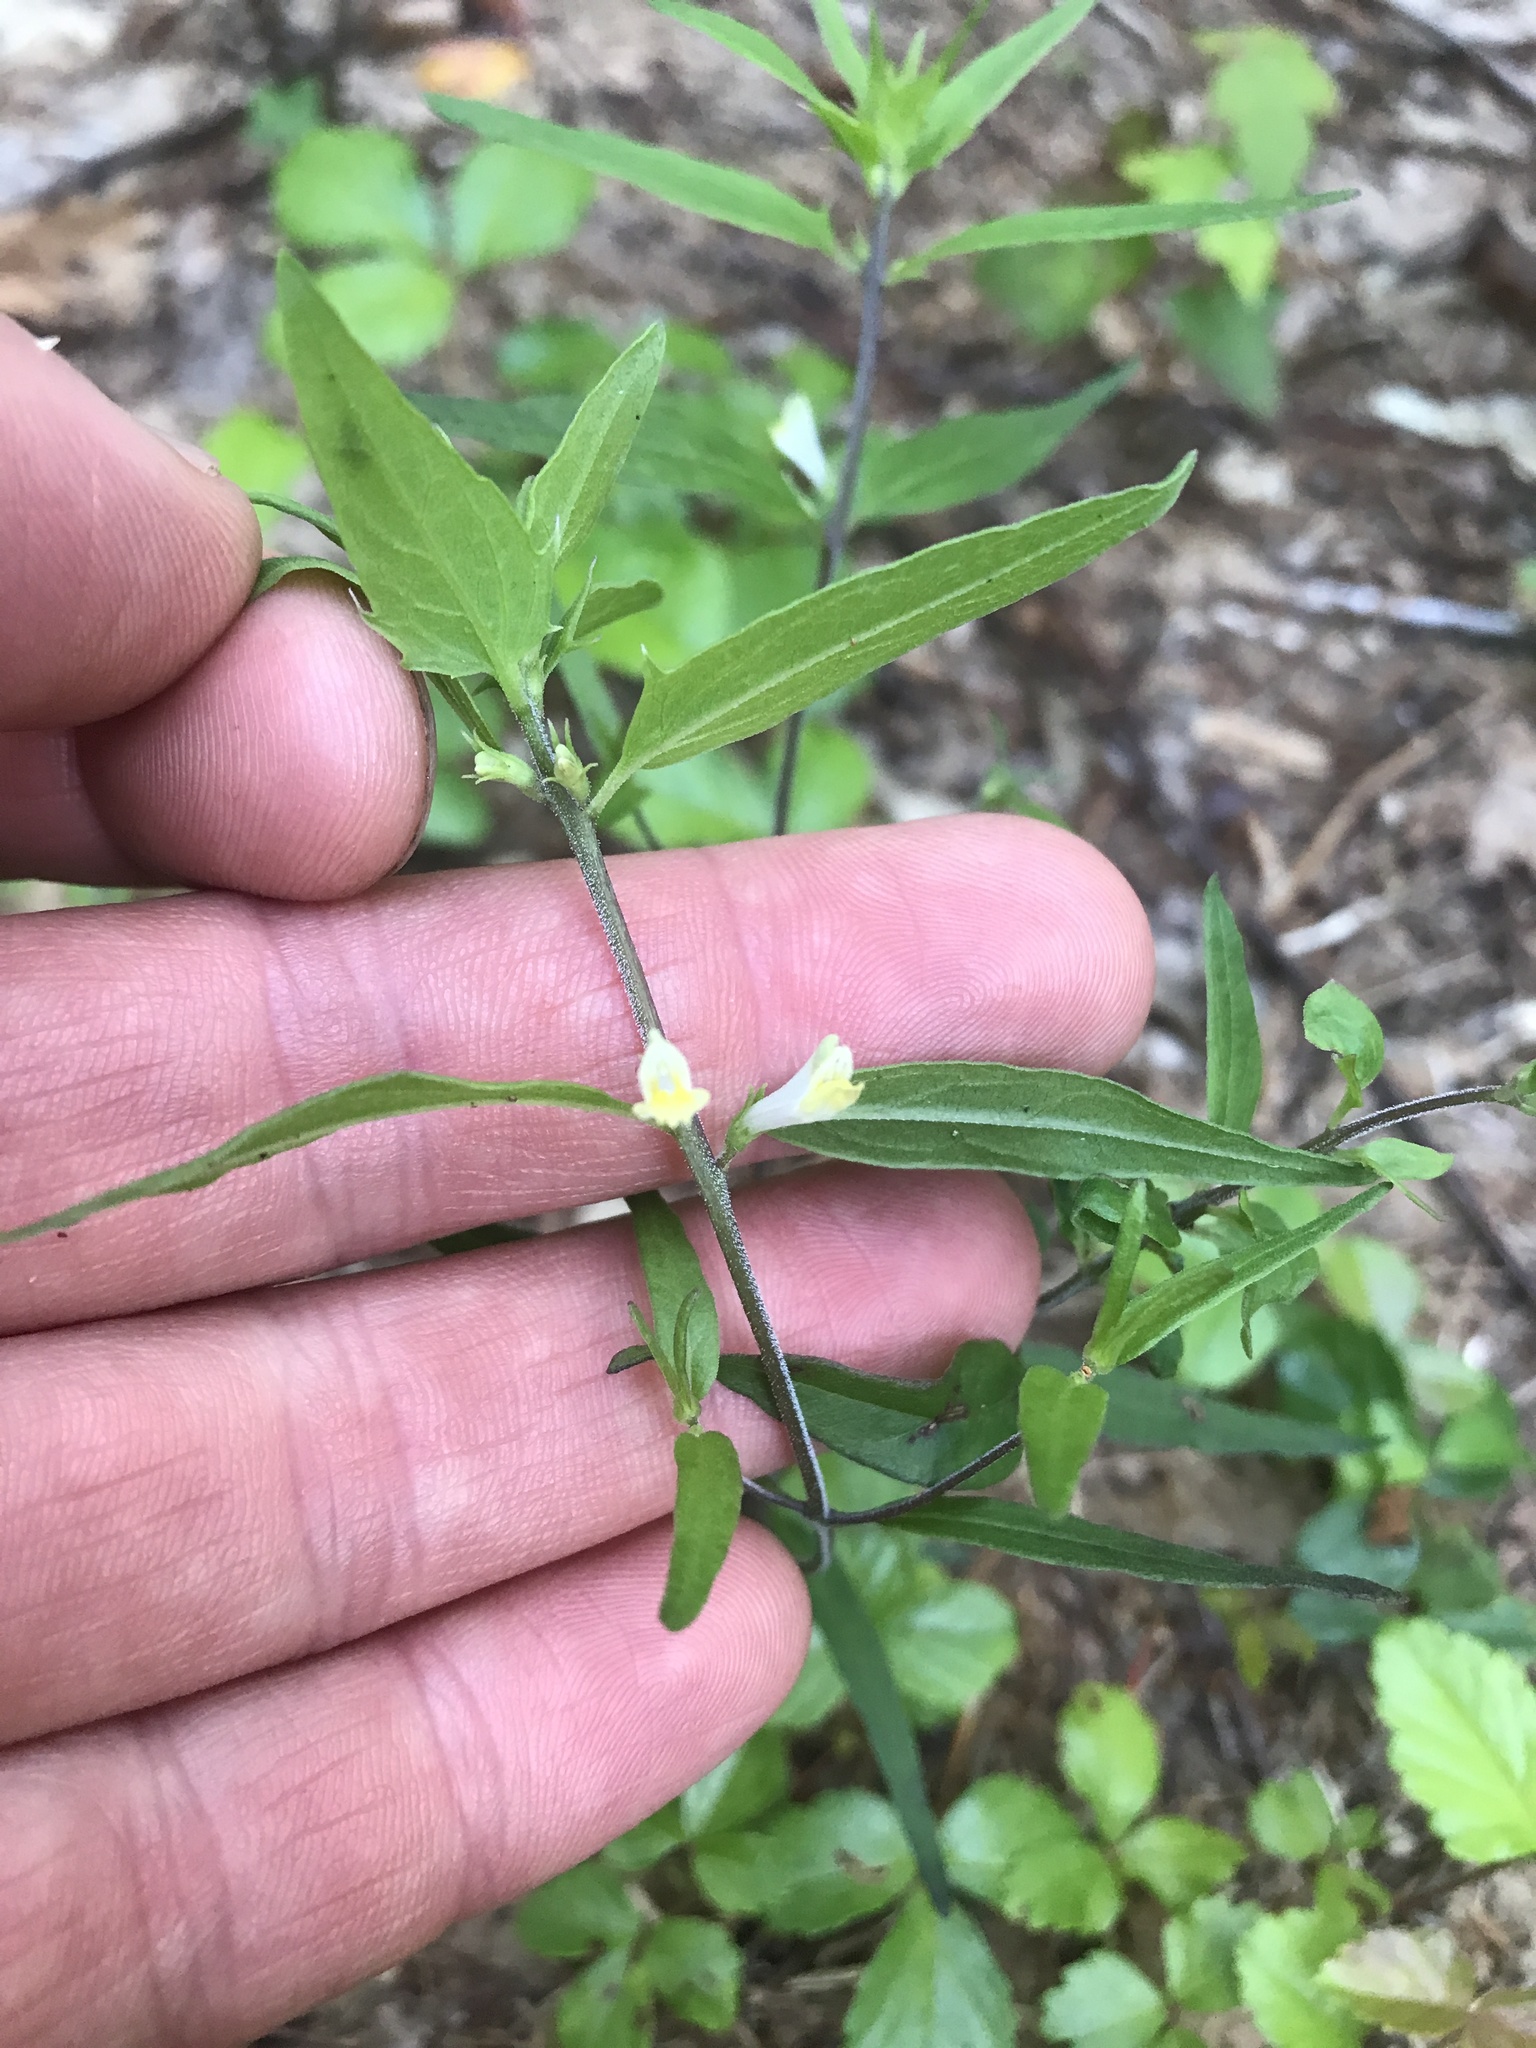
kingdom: Plantae
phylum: Tracheophyta
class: Magnoliopsida
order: Lamiales
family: Orobanchaceae
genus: Melampyrum
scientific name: Melampyrum lineare
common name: American cow-wheat
